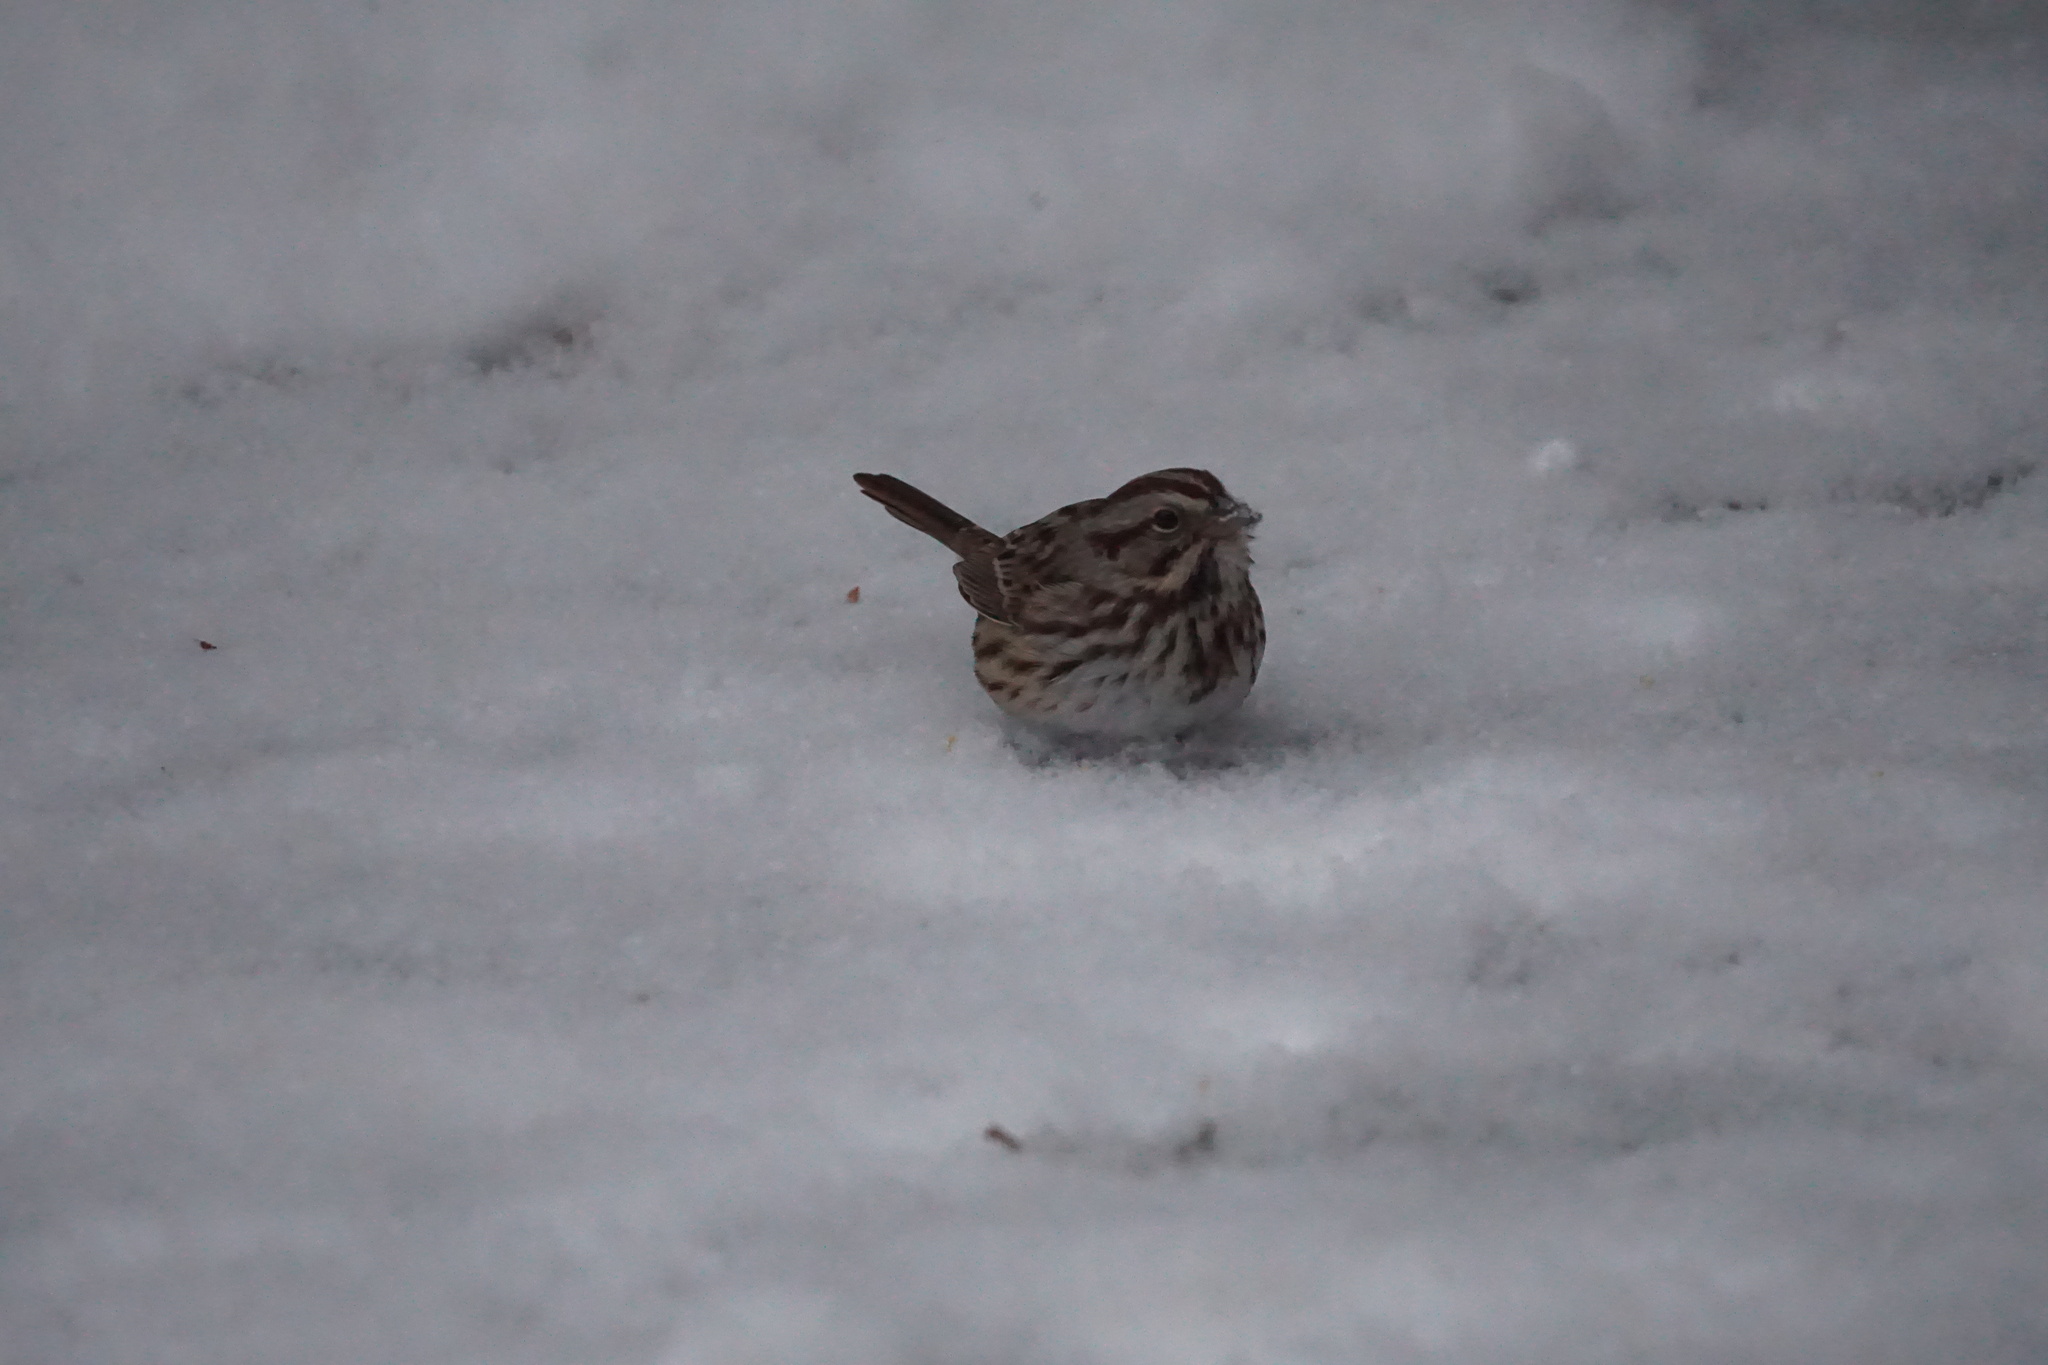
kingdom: Animalia
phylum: Chordata
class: Aves
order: Passeriformes
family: Passerellidae
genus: Melospiza
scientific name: Melospiza melodia
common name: Song sparrow
